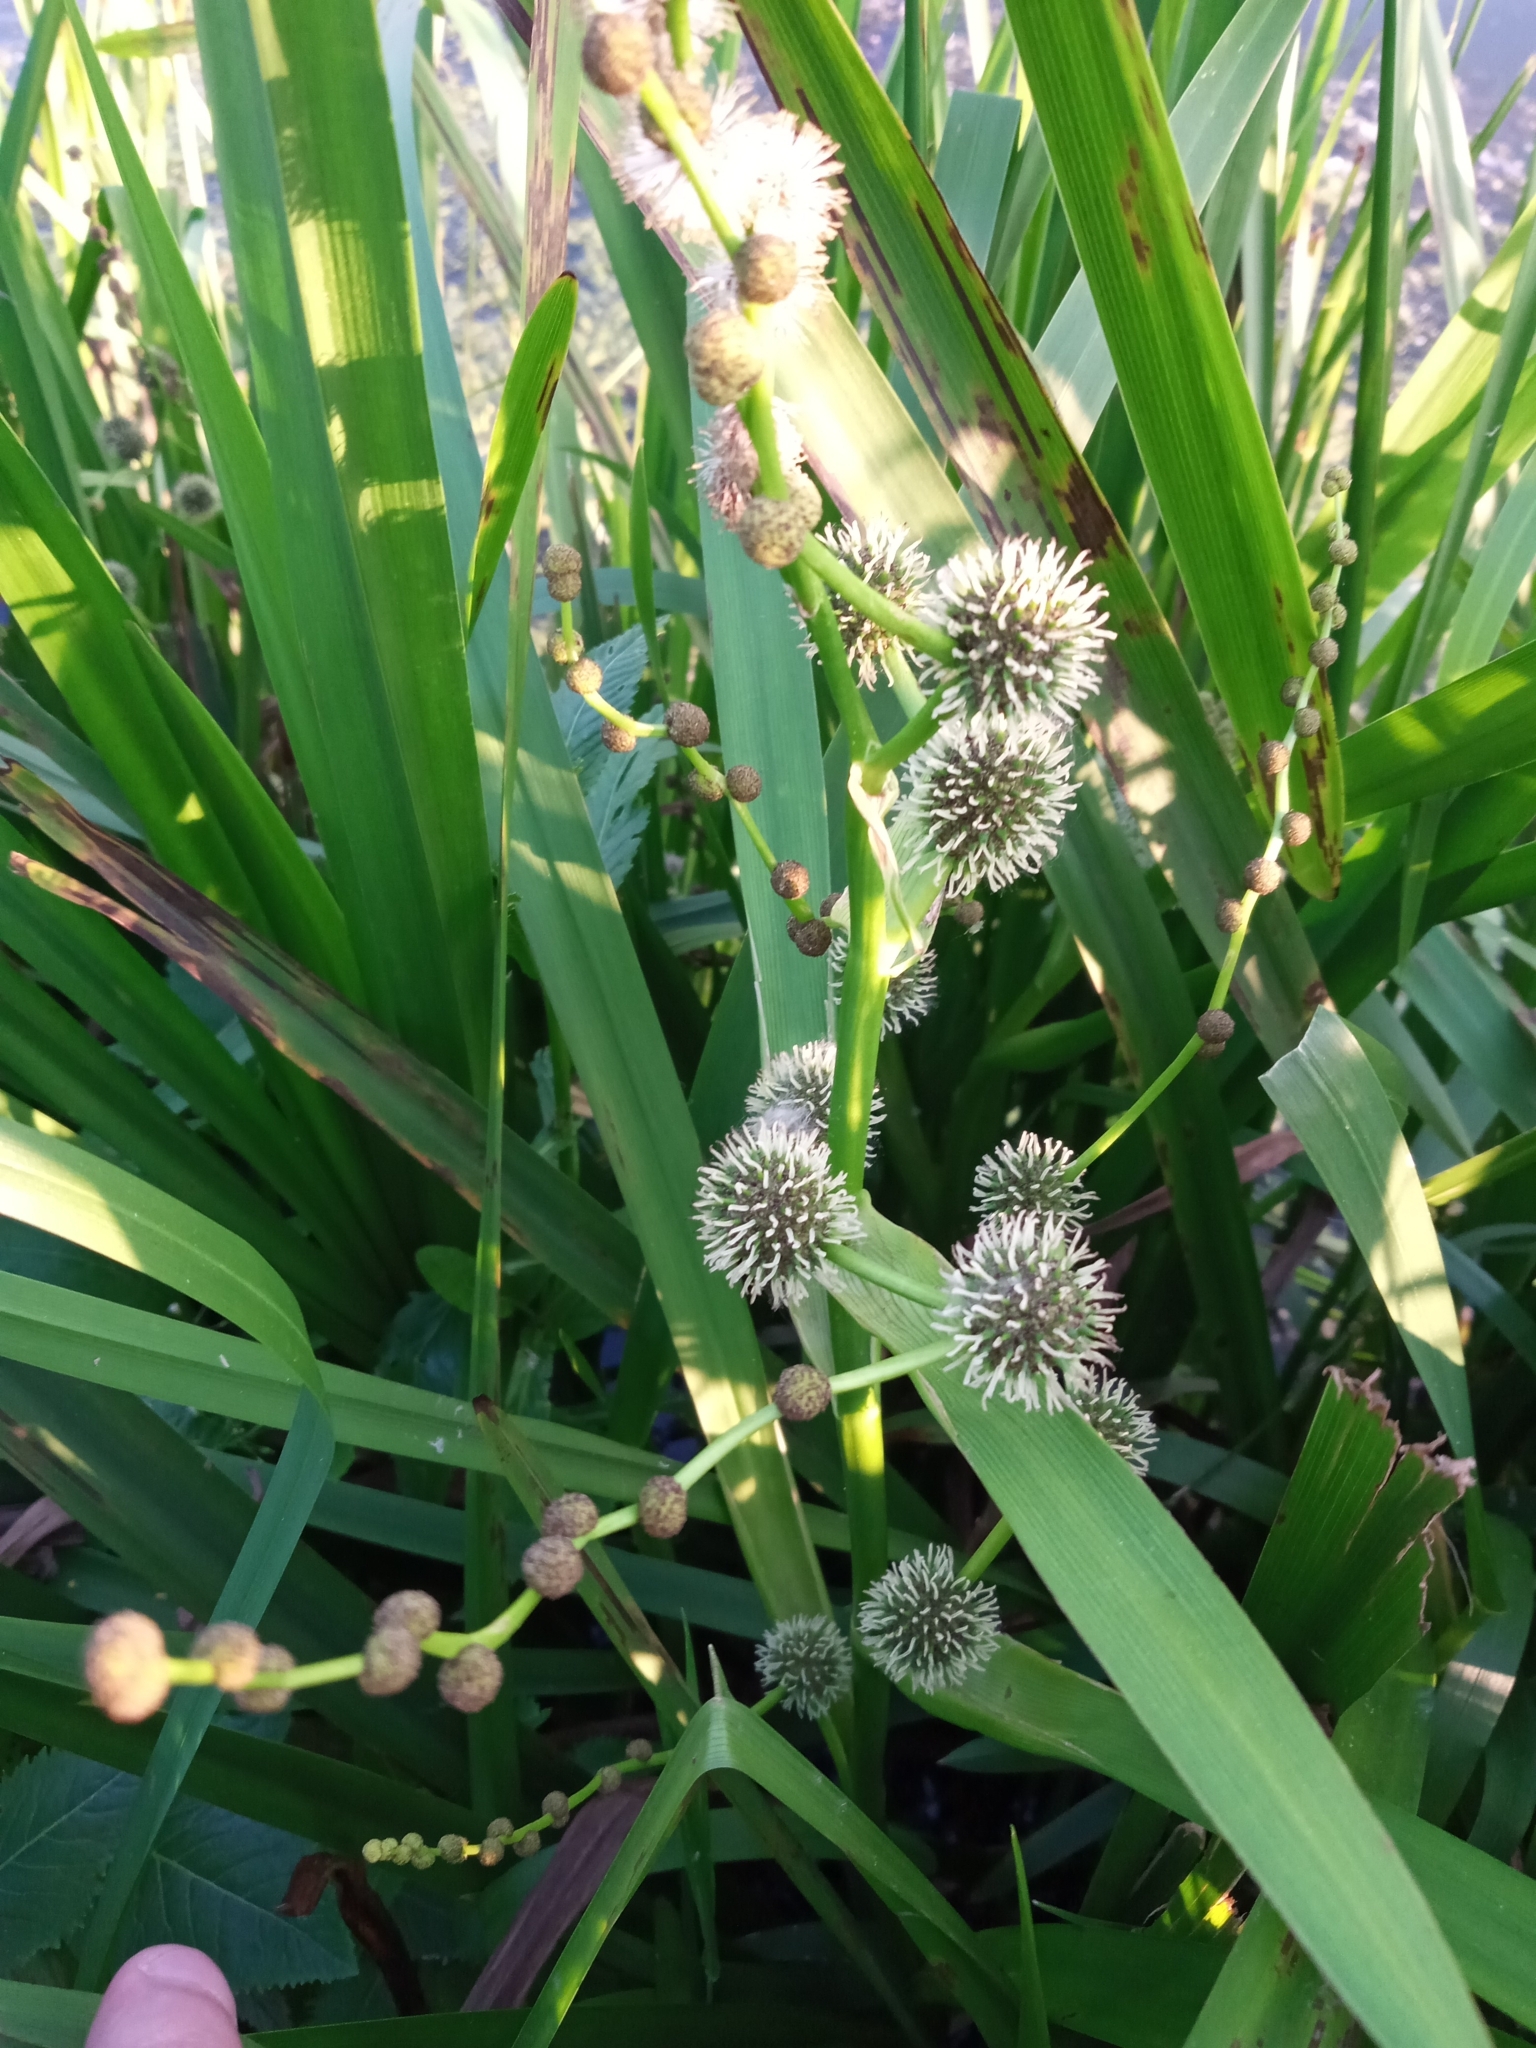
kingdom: Plantae
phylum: Tracheophyta
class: Liliopsida
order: Poales
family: Typhaceae
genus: Sparganium
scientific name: Sparganium erectum
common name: Branched bur-reed
